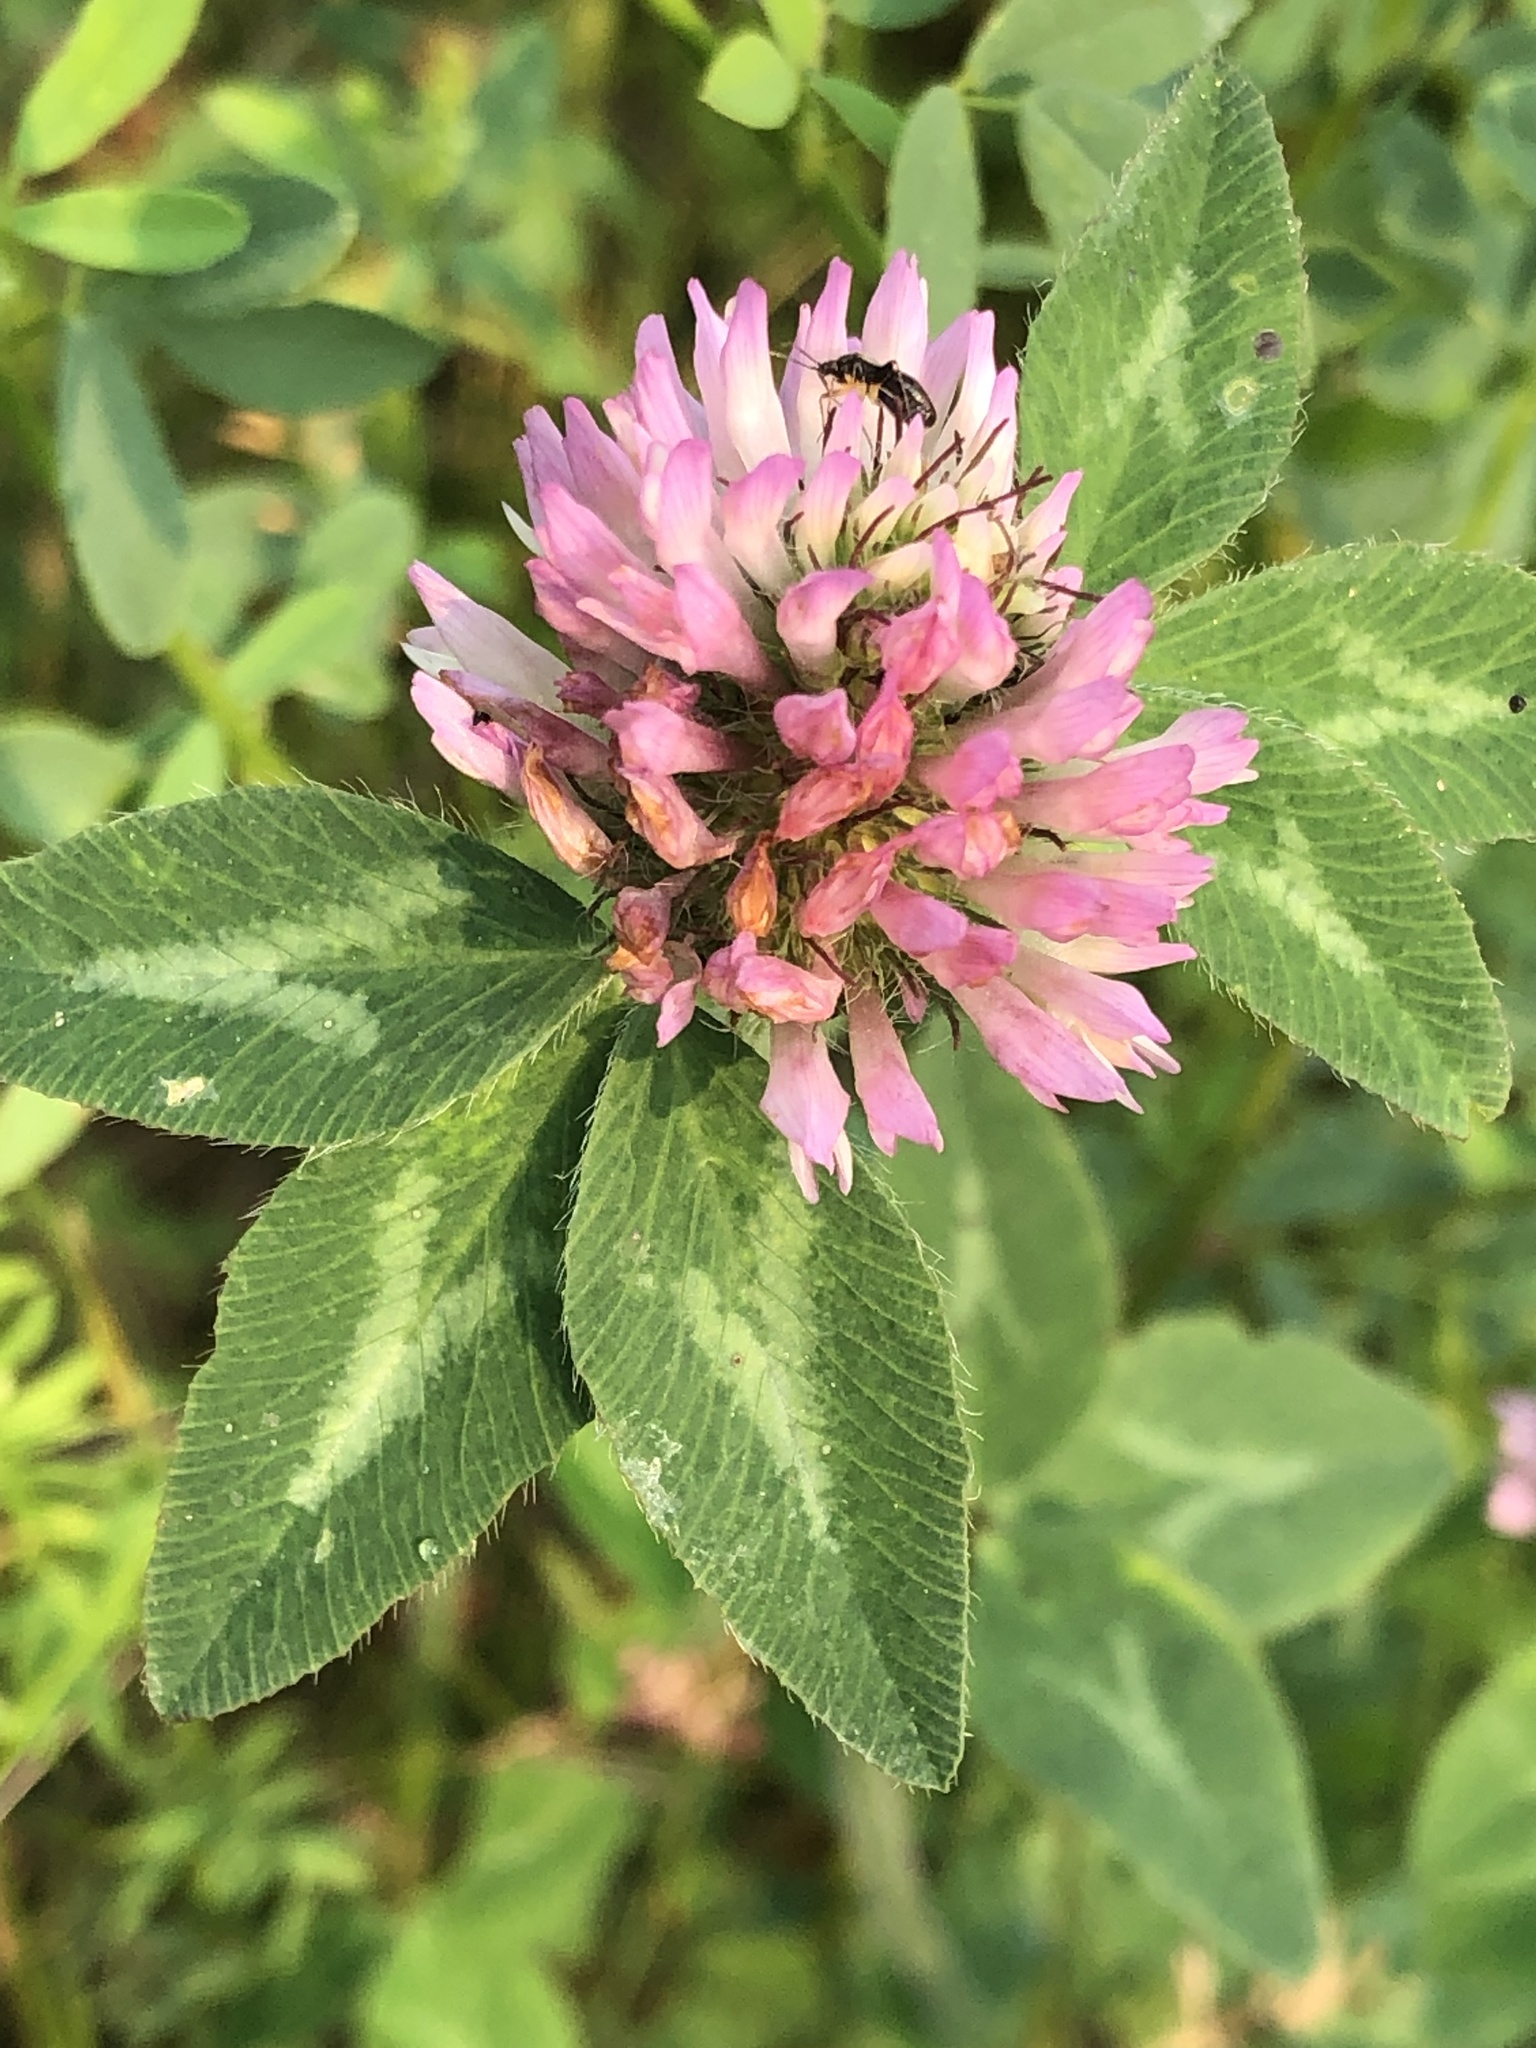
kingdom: Plantae
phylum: Tracheophyta
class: Magnoliopsida
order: Fabales
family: Fabaceae
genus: Trifolium
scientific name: Trifolium pratense
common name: Red clover
